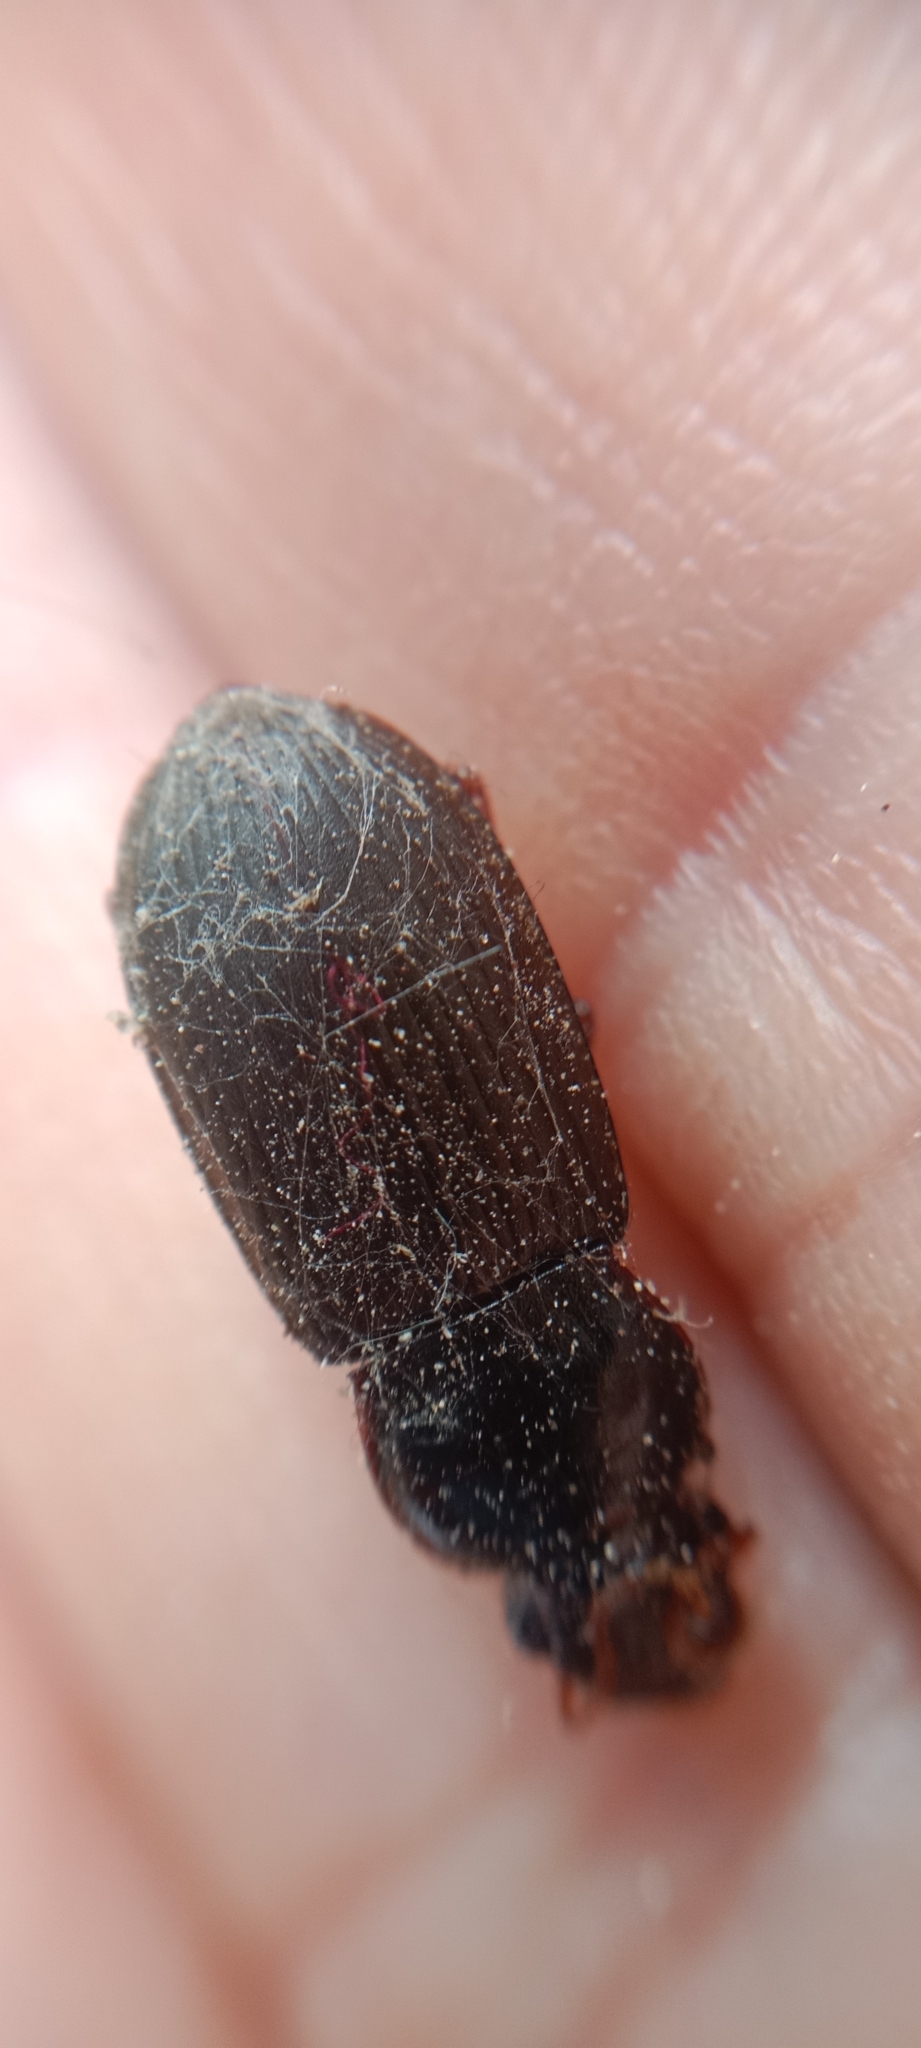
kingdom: Animalia
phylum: Arthropoda
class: Insecta
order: Coleoptera
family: Carabidae
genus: Harpalus
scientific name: Harpalus rufipes
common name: Strawberry harp ground beetle
